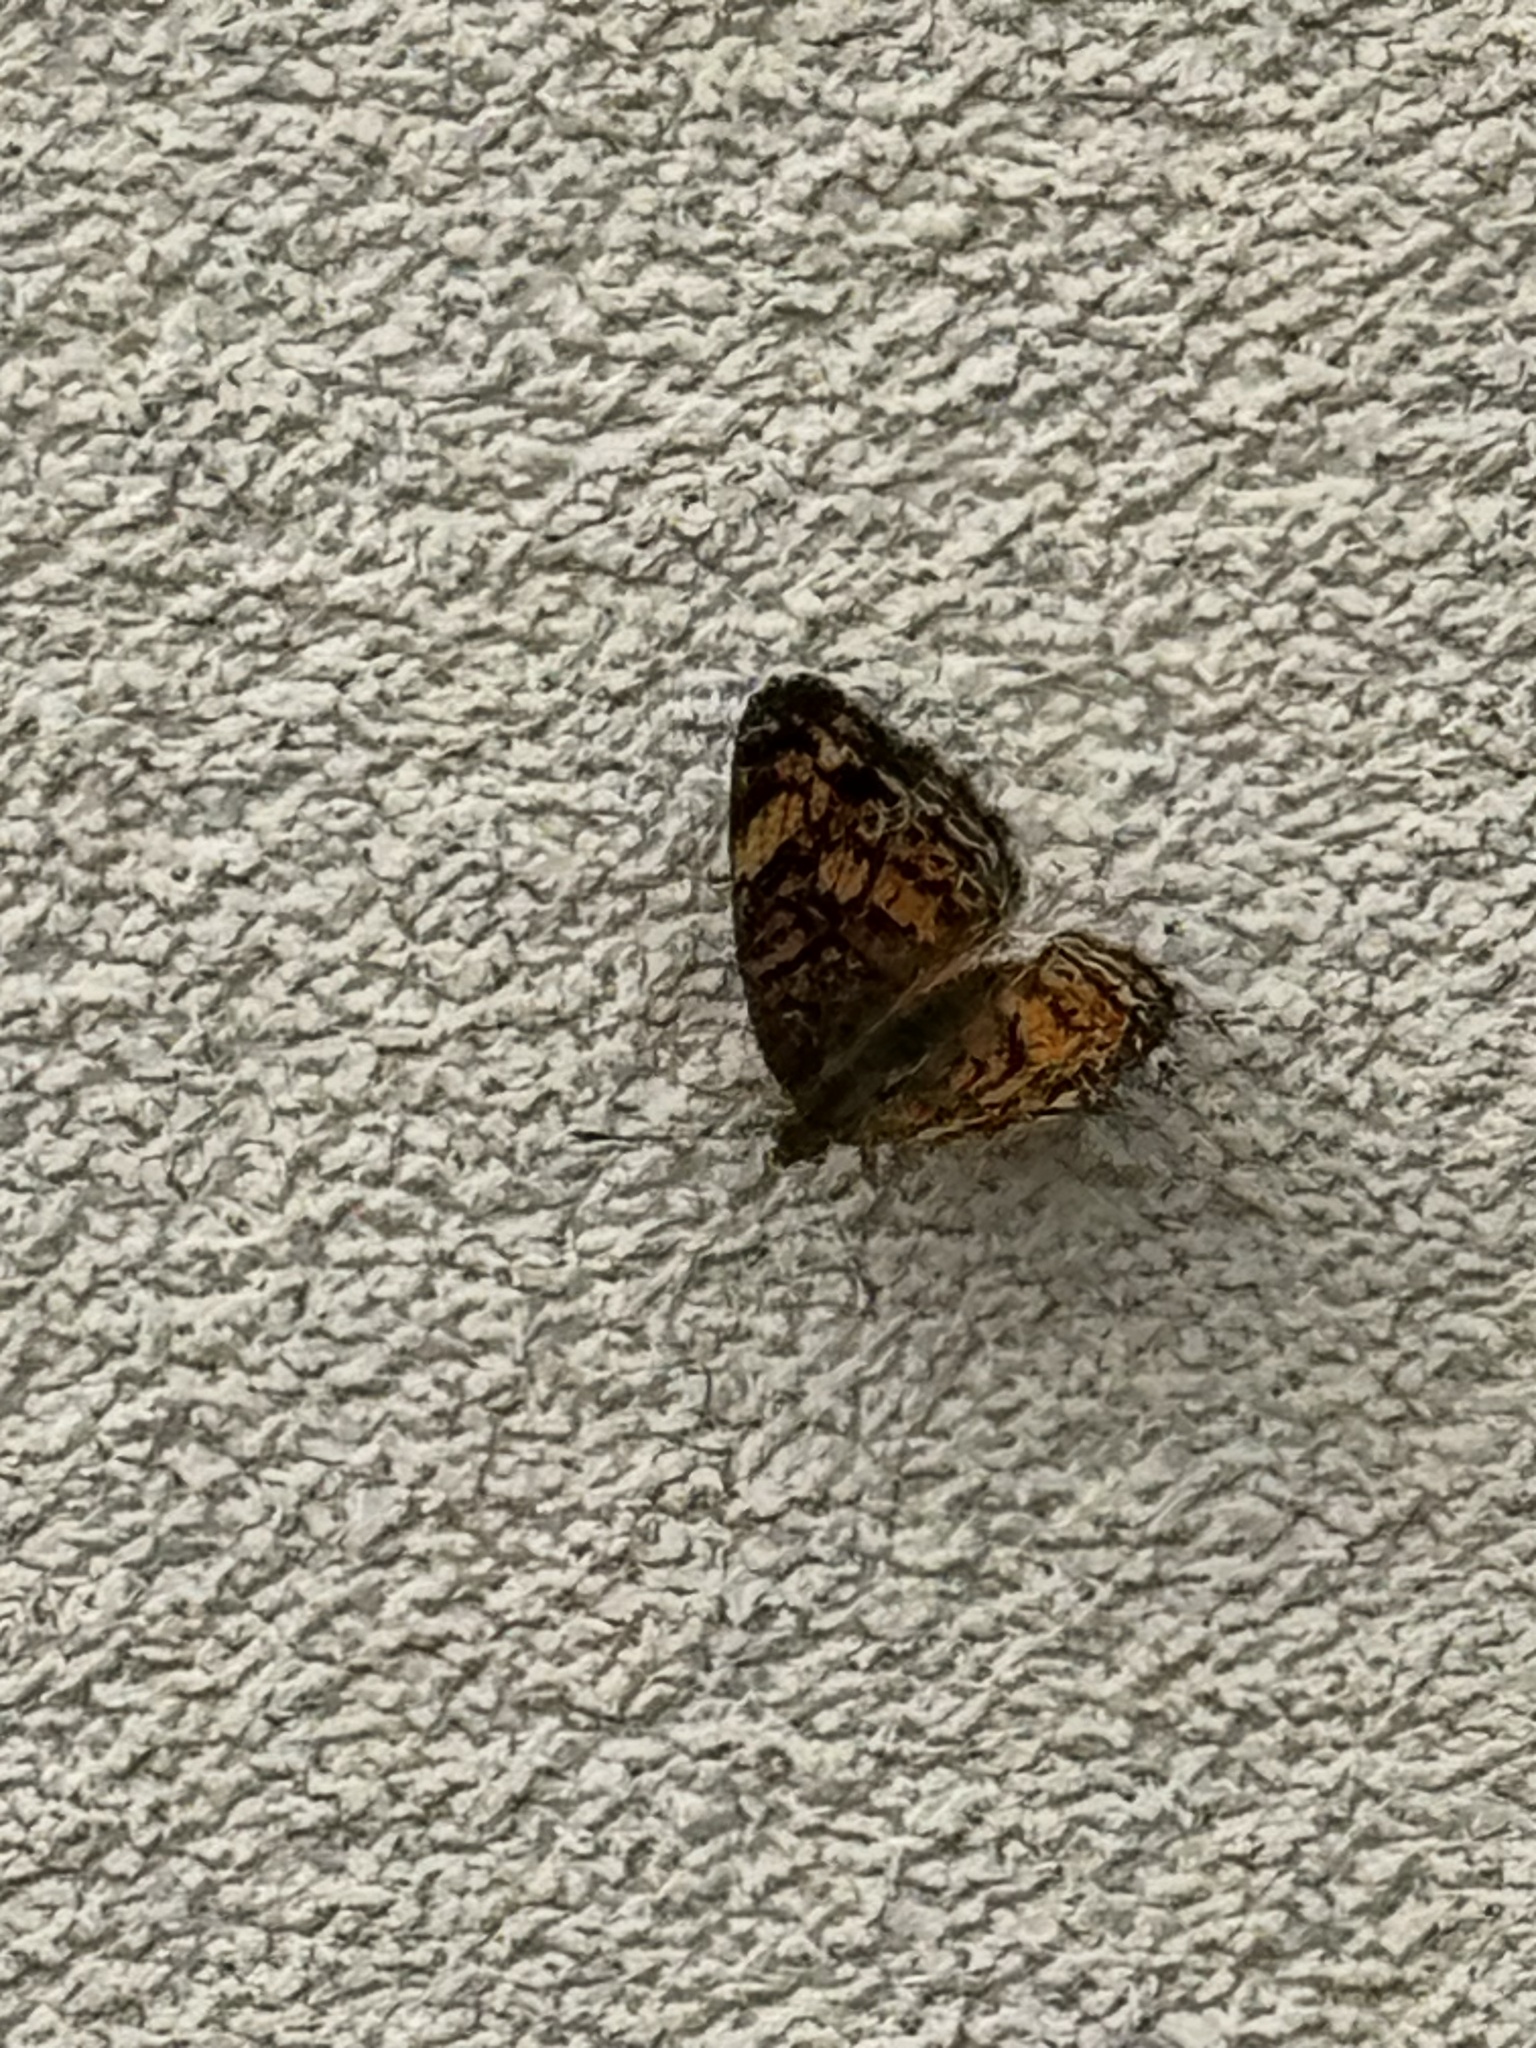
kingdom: Animalia
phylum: Arthropoda
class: Insecta
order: Lepidoptera
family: Nymphalidae
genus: Phyciodes
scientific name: Phyciodes tharos
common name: Pearl crescent
